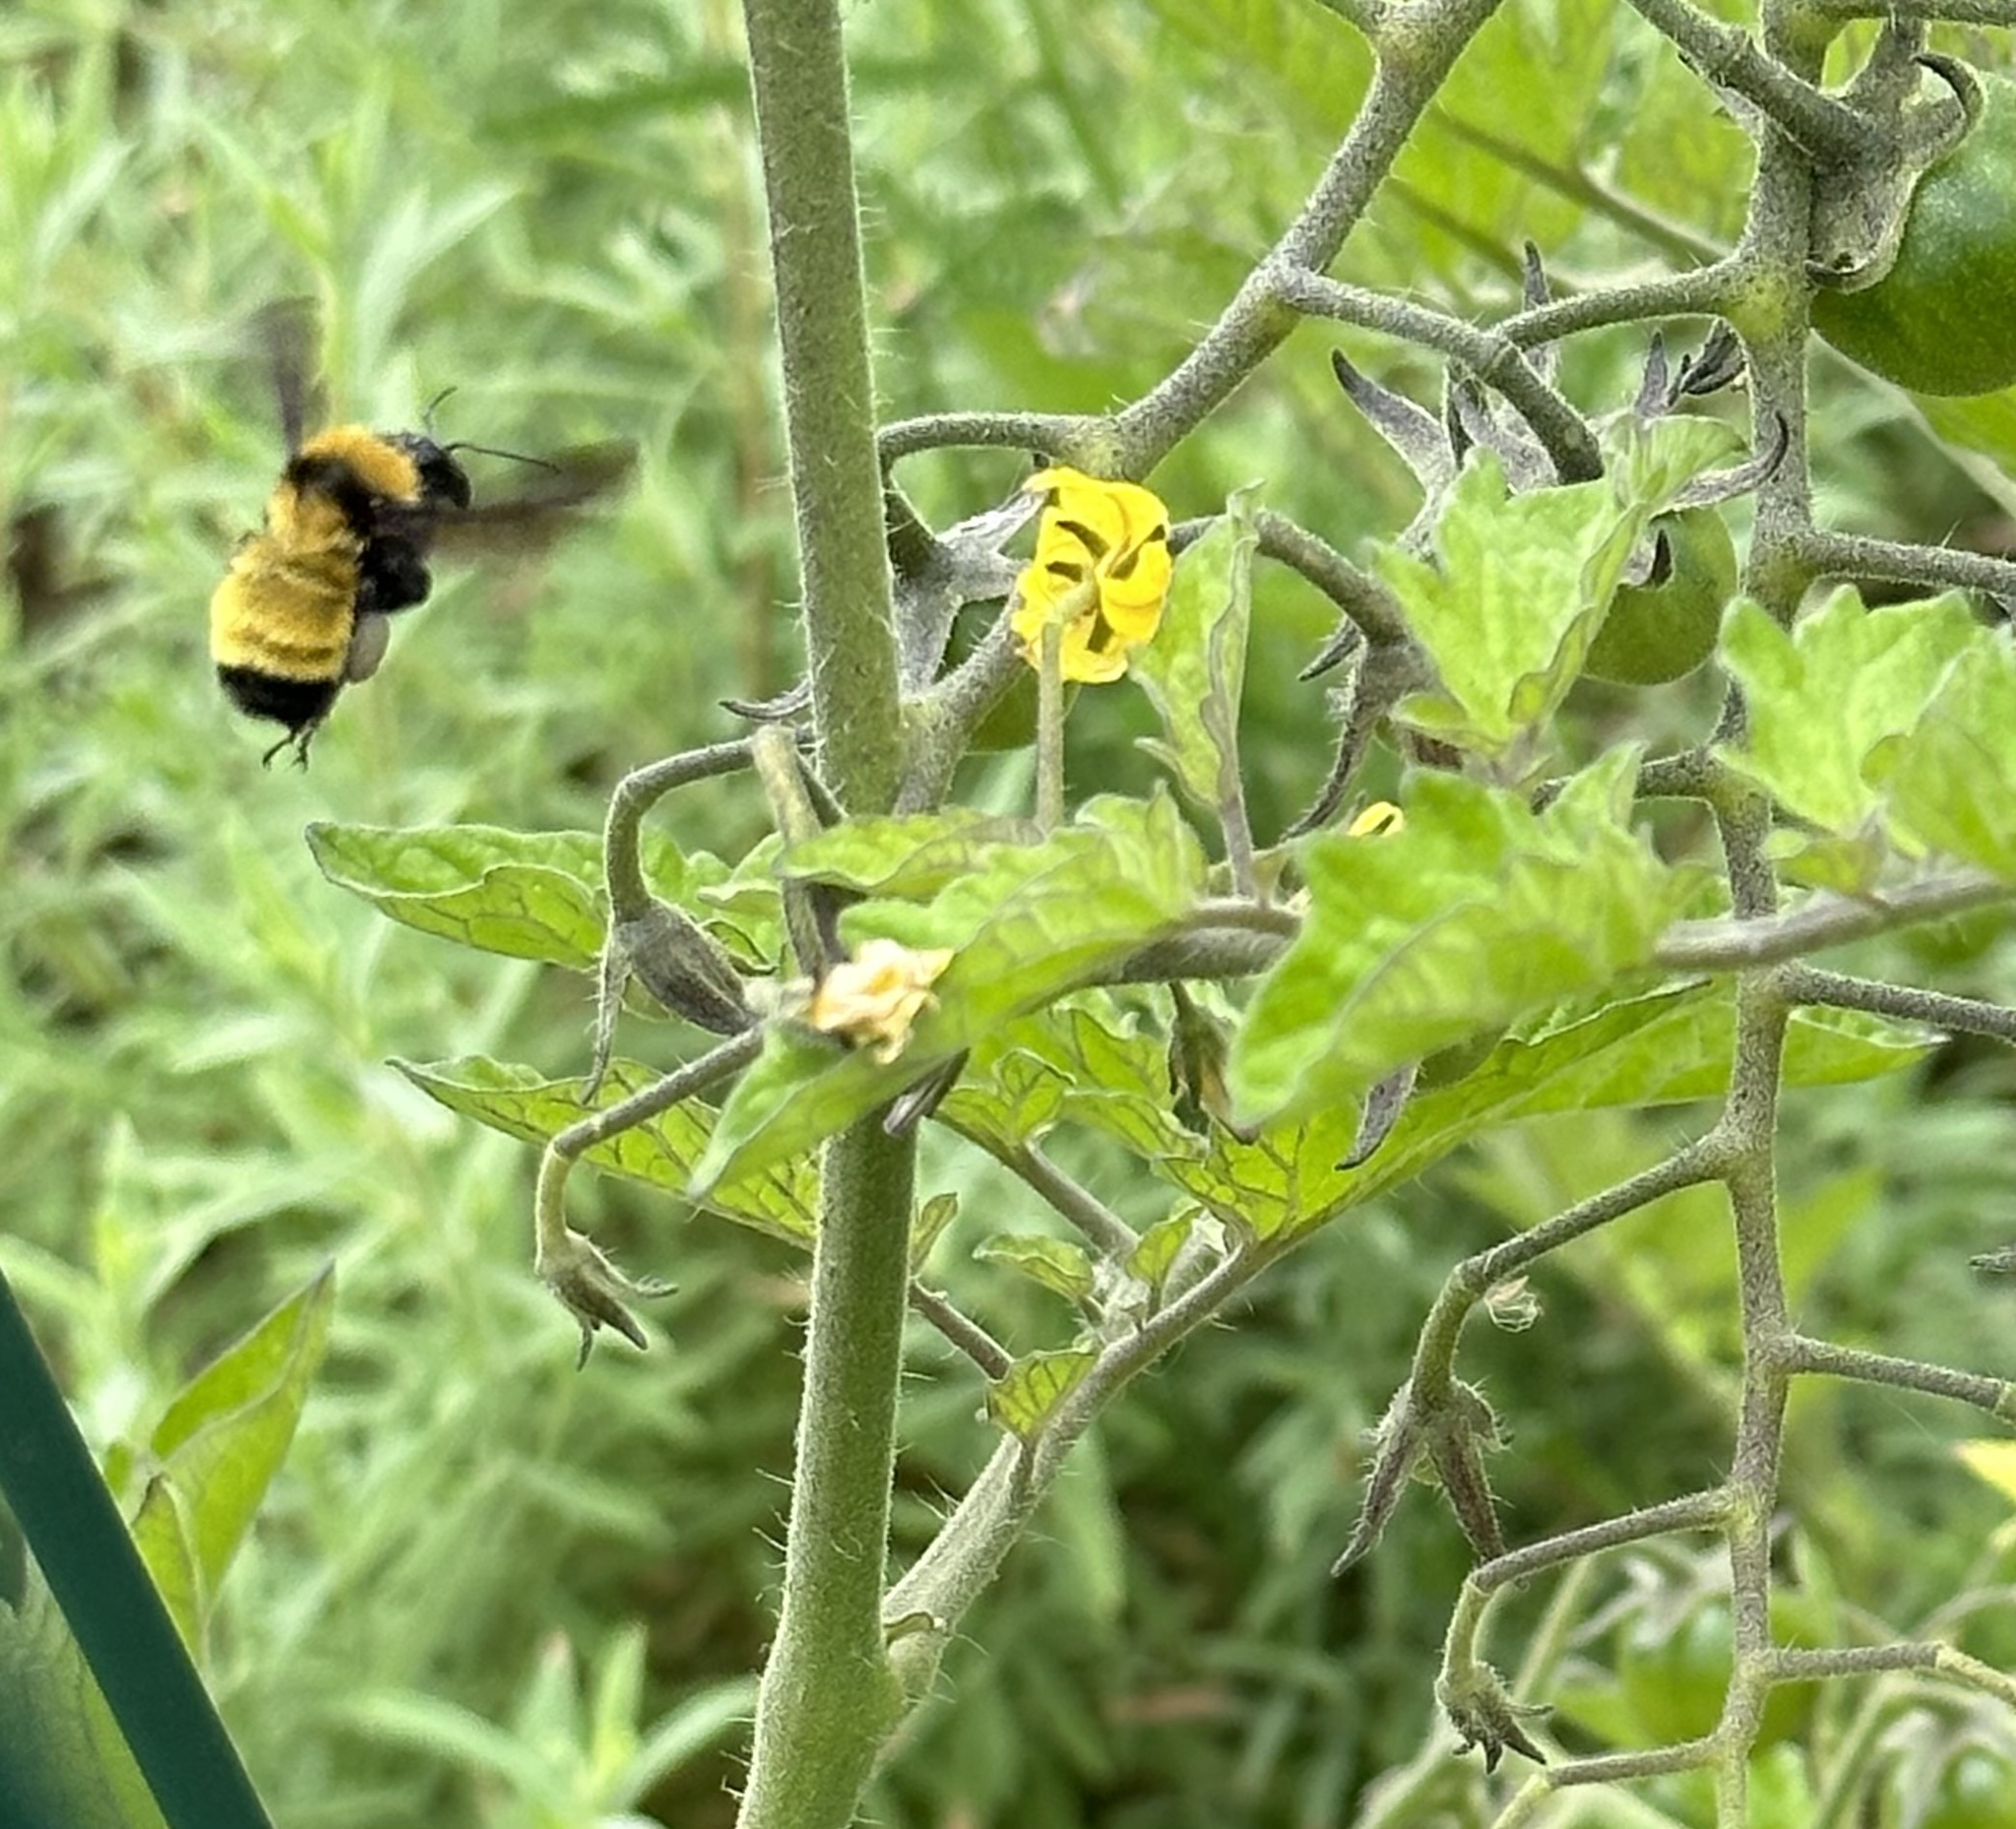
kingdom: Animalia
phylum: Arthropoda
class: Insecta
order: Hymenoptera
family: Apidae
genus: Bombus
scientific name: Bombus sonorus
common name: Sonoran bumble bee
